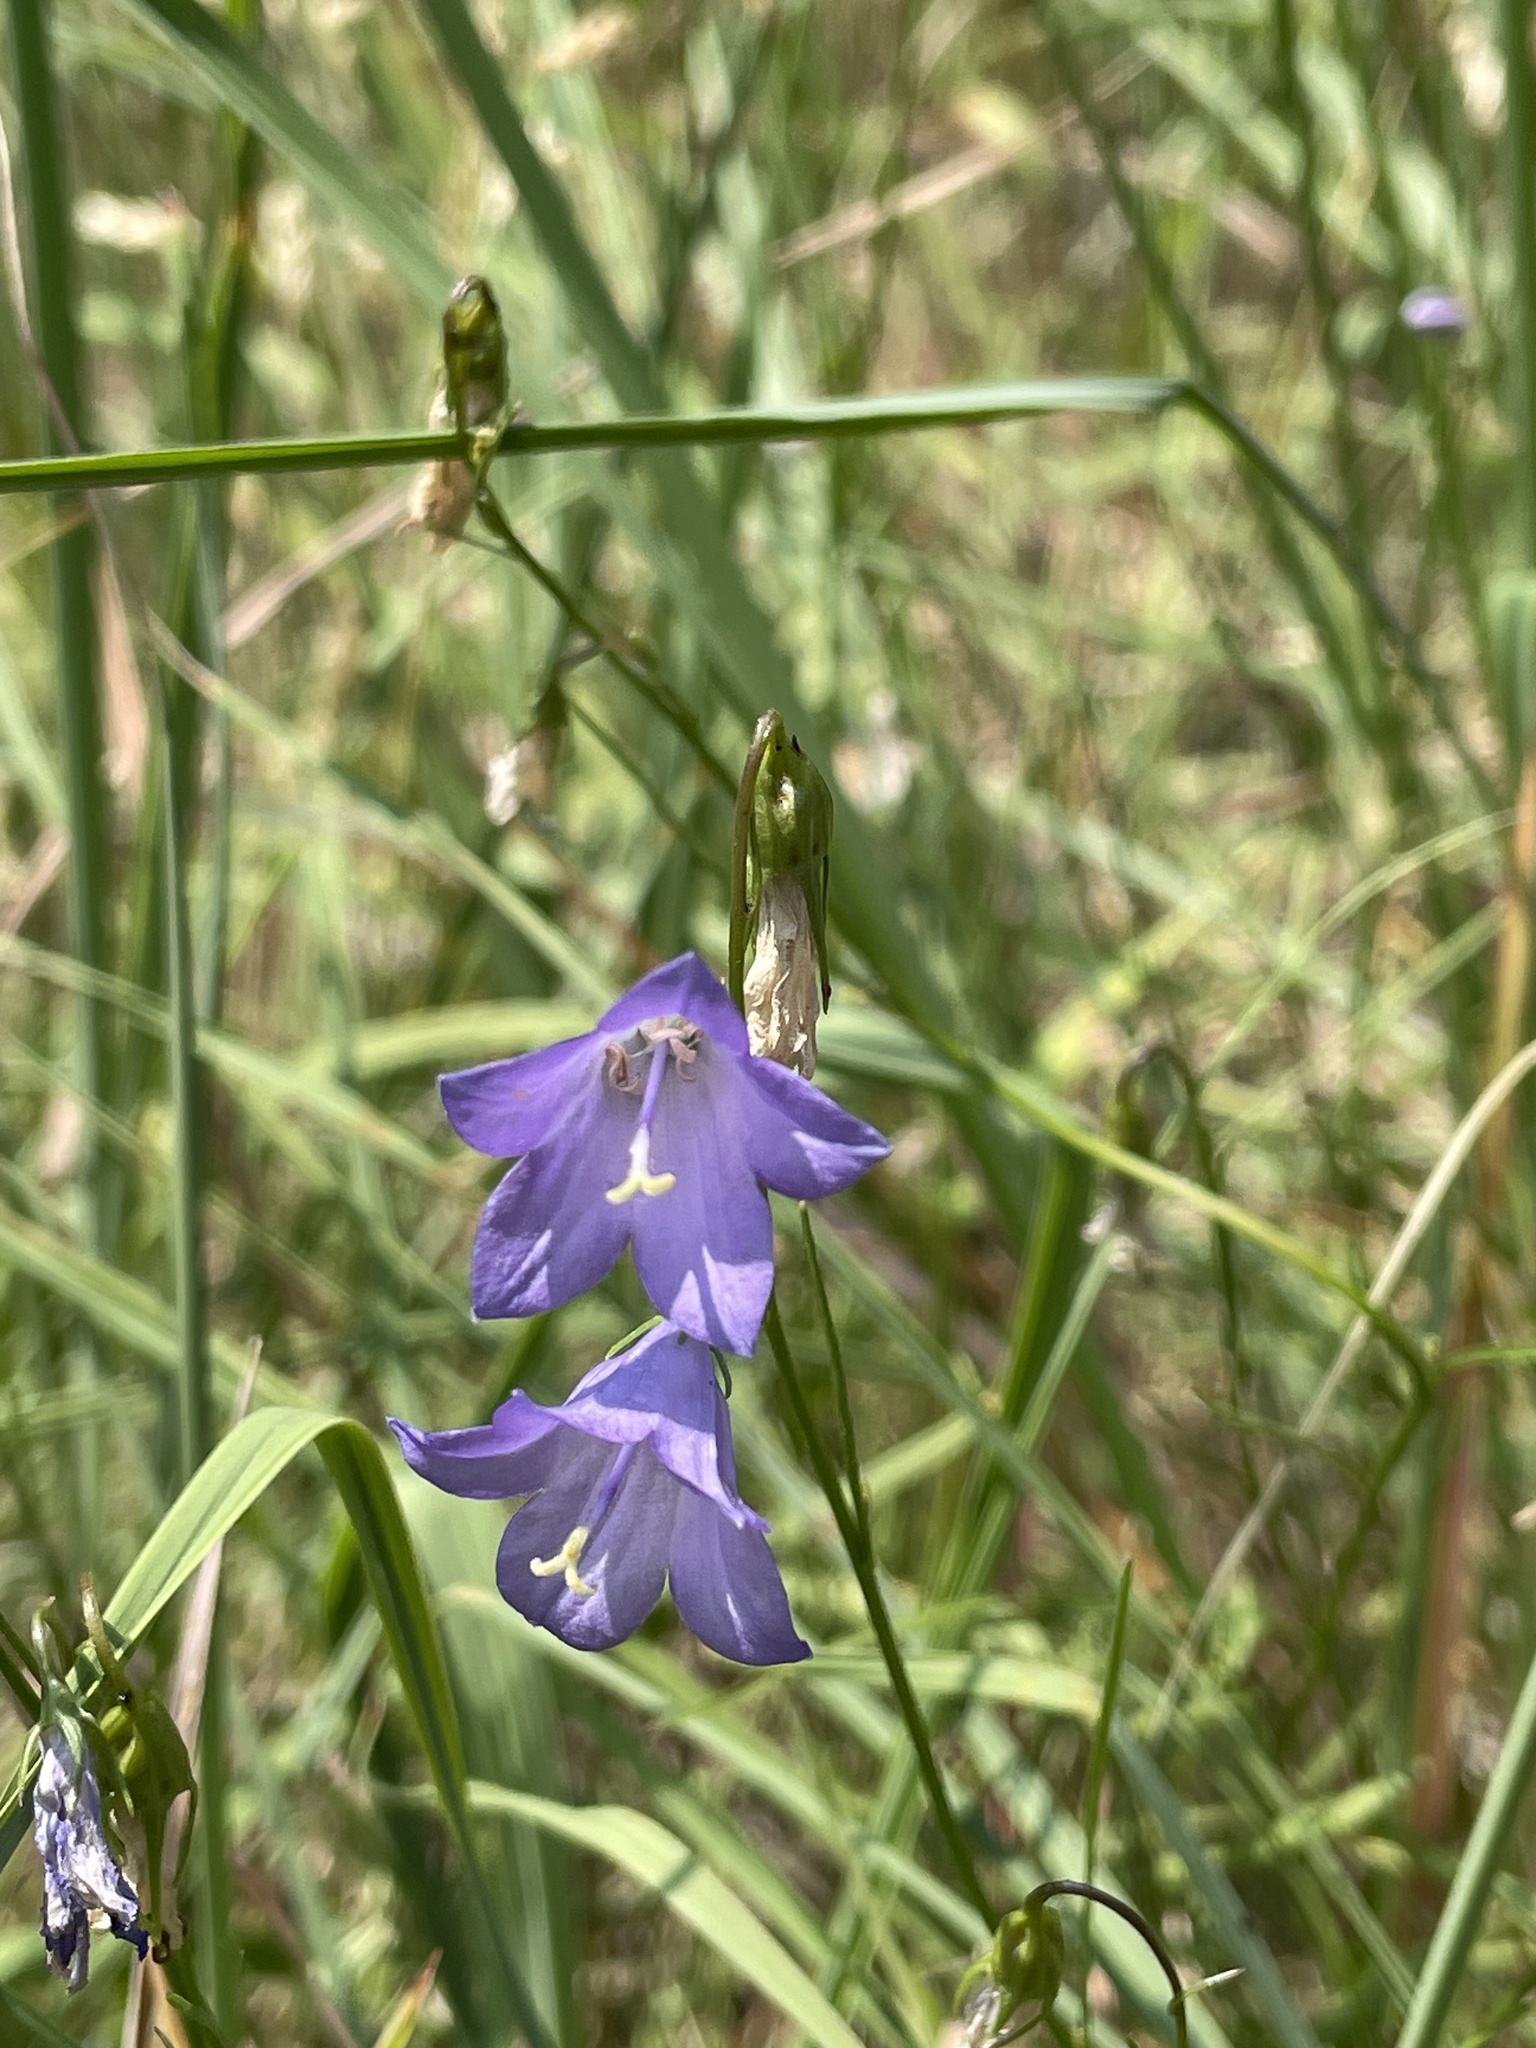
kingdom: Plantae
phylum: Tracheophyta
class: Magnoliopsida
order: Asterales
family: Campanulaceae
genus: Campanula
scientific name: Campanula intercedens
